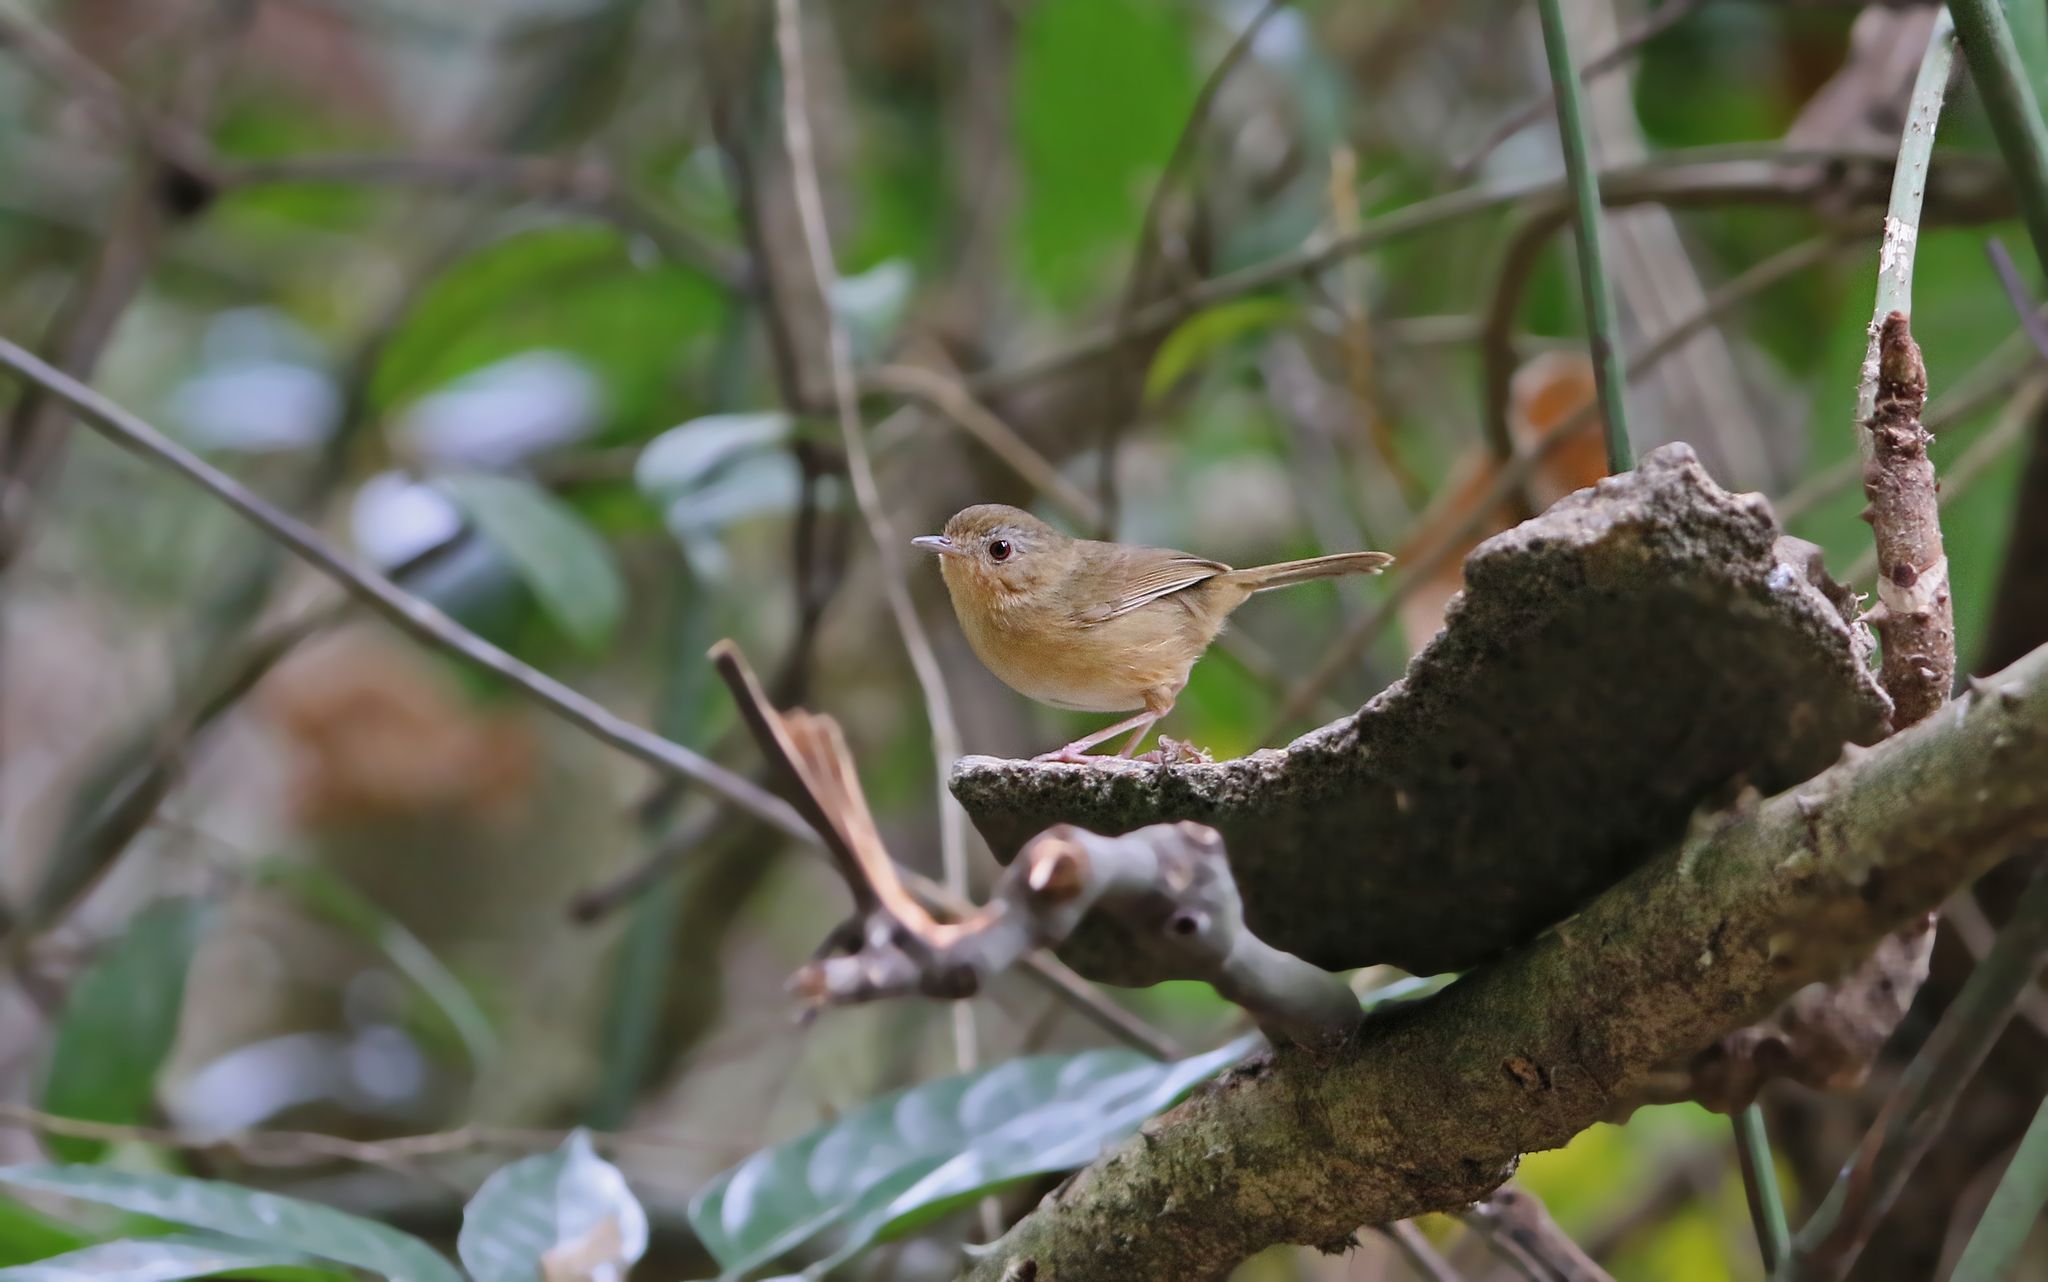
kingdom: Animalia
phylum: Chordata
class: Aves
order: Passeriformes
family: Pellorneidae
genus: Pellorneum
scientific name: Pellorneum tickelli
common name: Buff-breasted babbler
